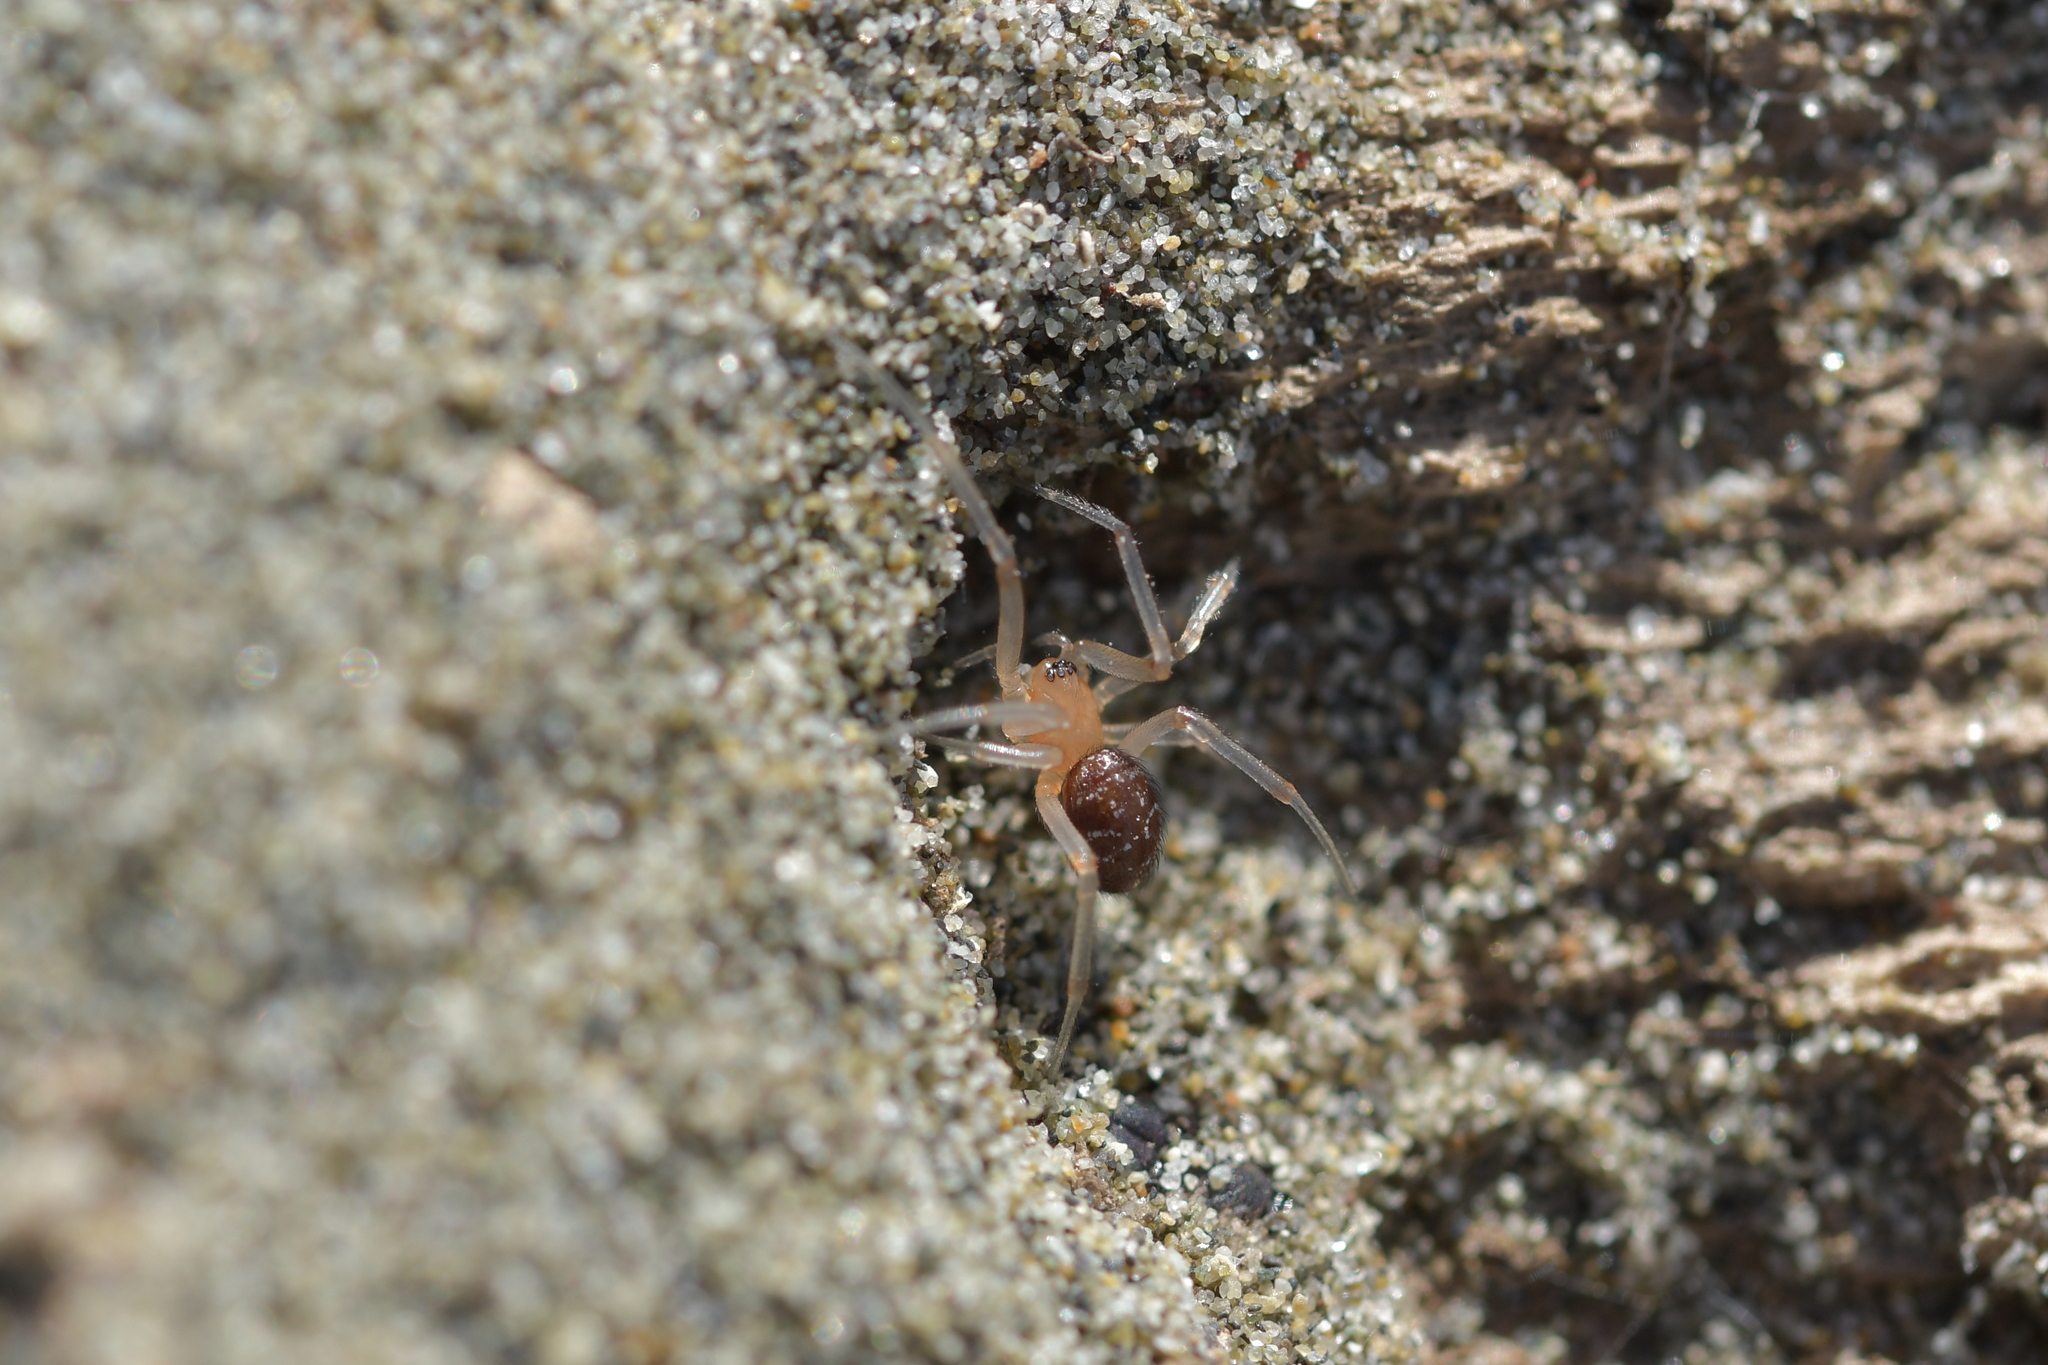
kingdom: Animalia
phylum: Arthropoda
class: Arachnida
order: Araneae
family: Theridiidae
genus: Steatoda
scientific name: Steatoda capensis
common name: Cobweb weaver
